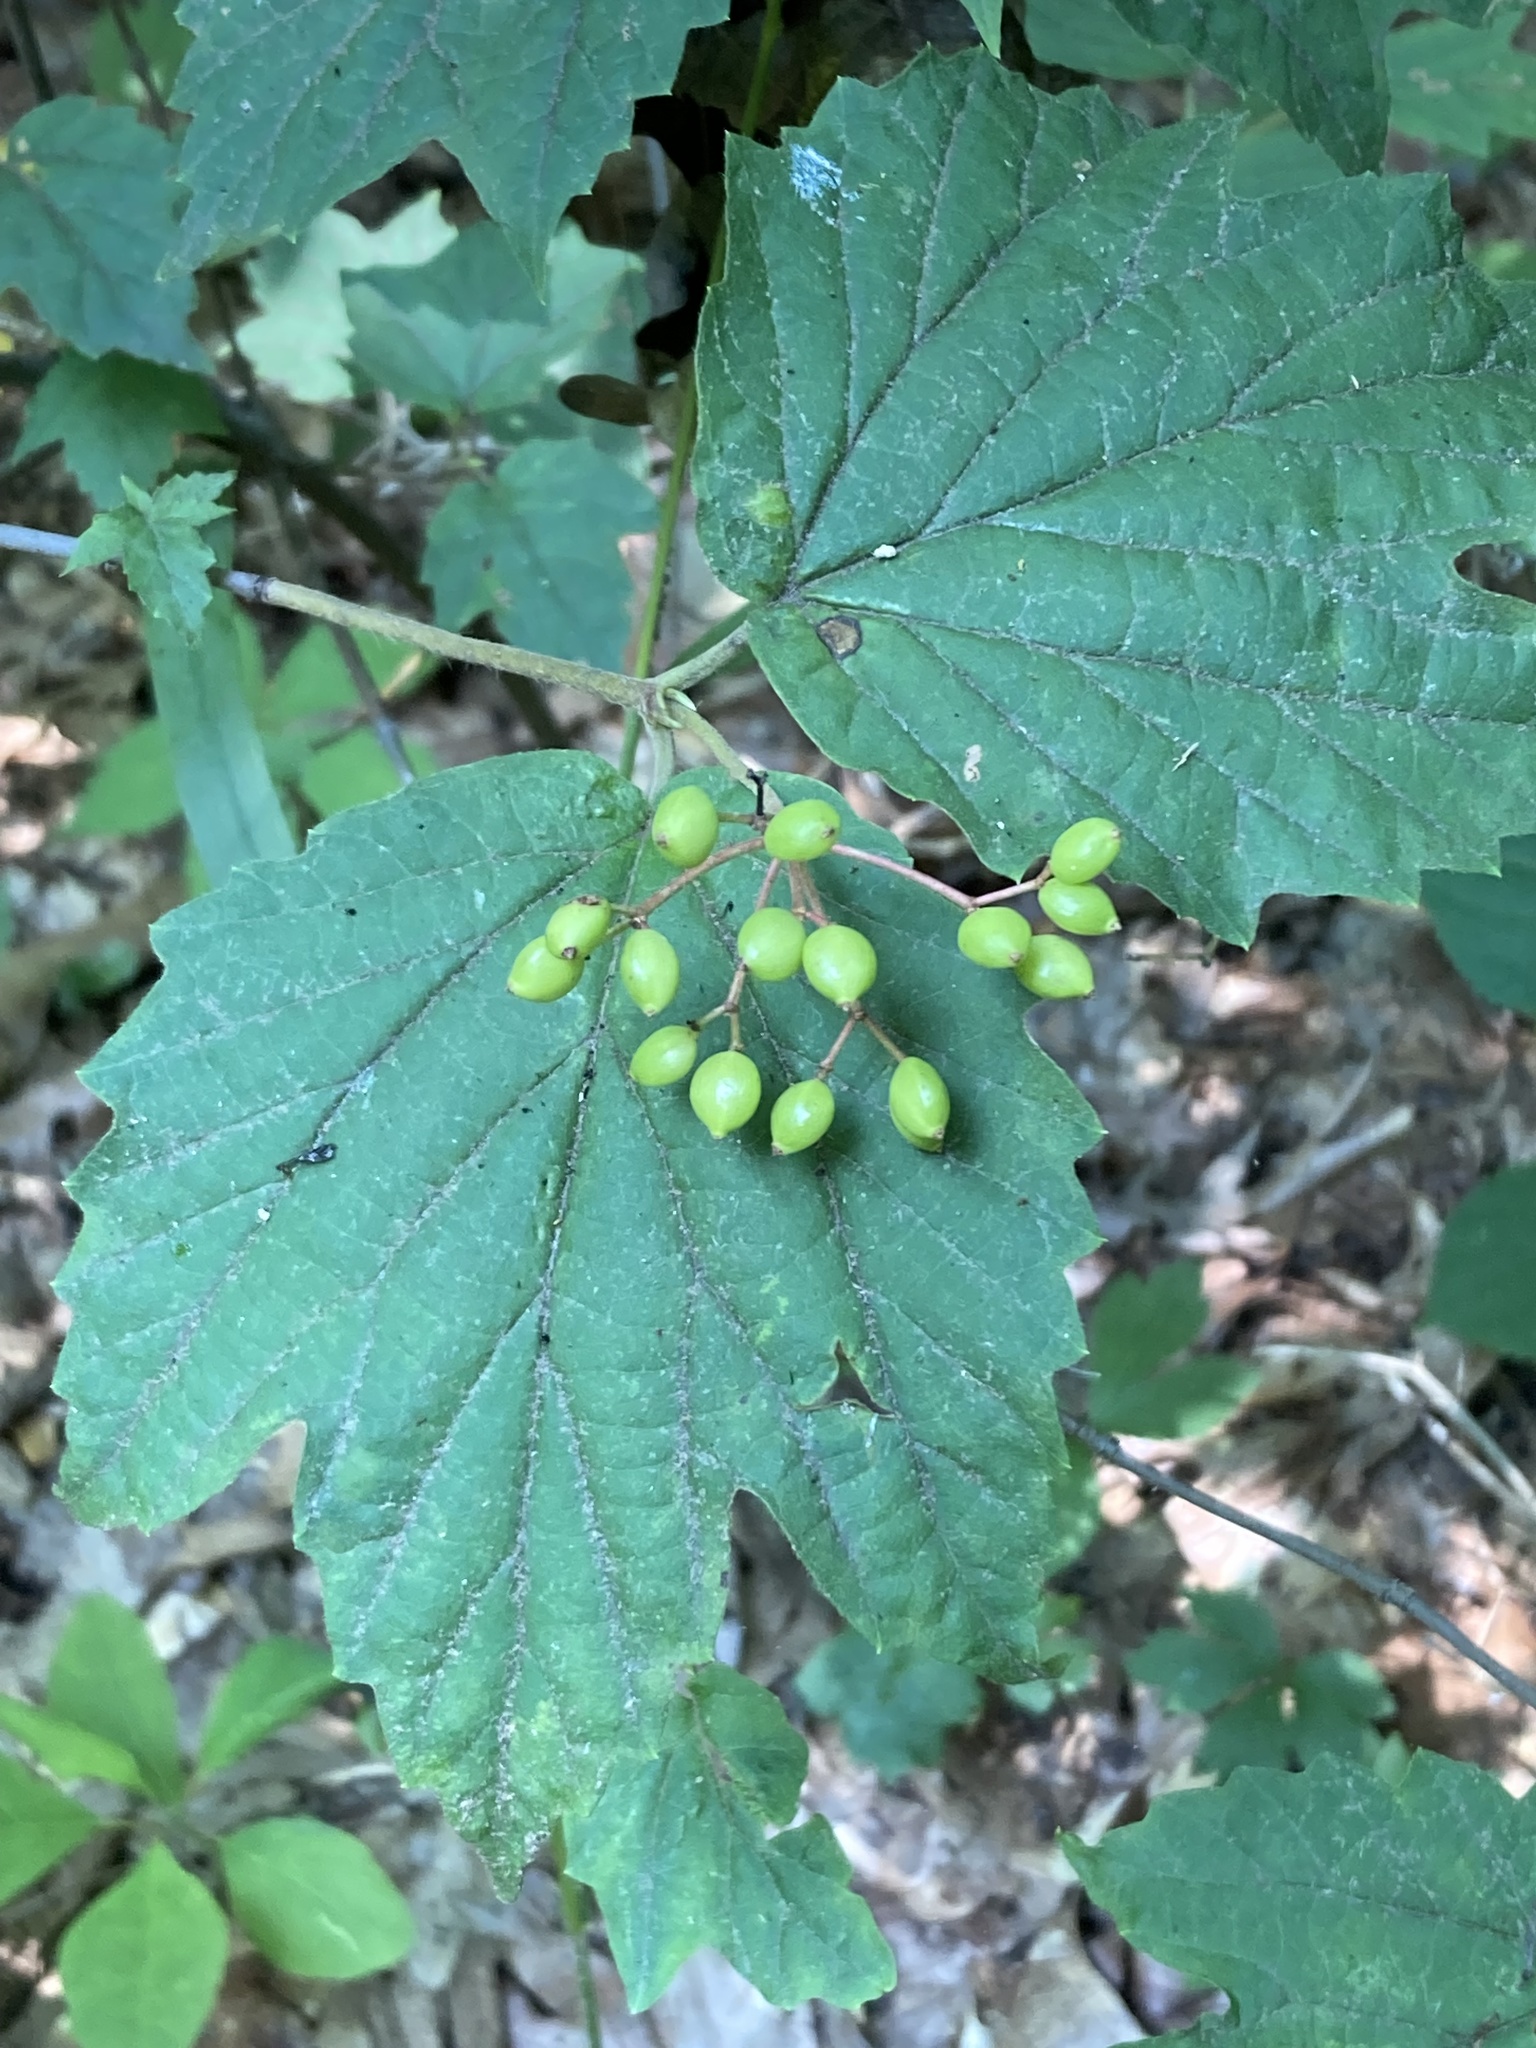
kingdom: Plantae
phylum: Tracheophyta
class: Magnoliopsida
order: Dipsacales
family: Viburnaceae
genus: Viburnum
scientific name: Viburnum acerifolium
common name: Dockmackie
